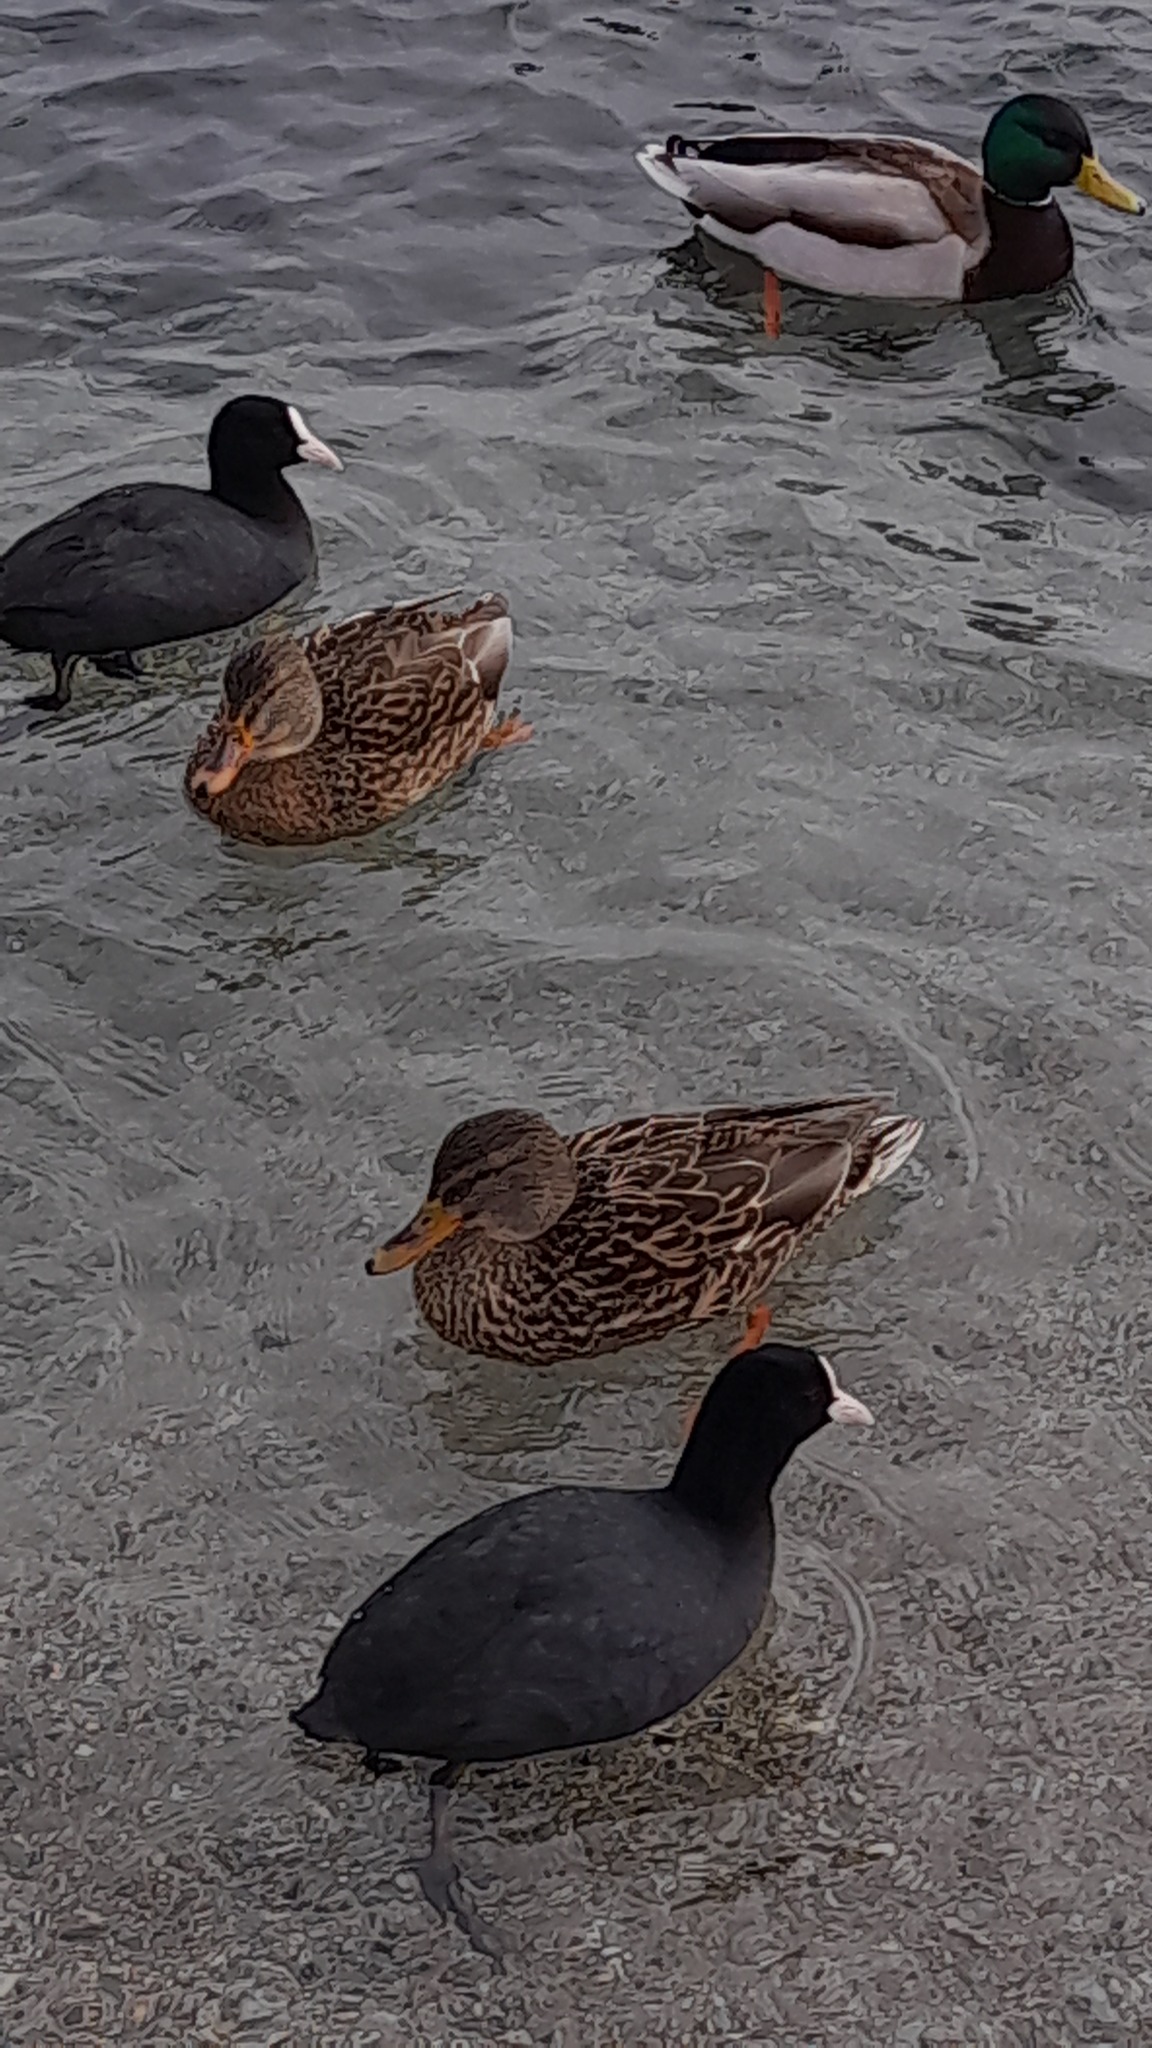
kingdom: Animalia
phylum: Chordata
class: Aves
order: Gruiformes
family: Rallidae
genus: Fulica
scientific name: Fulica atra
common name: Eurasian coot
